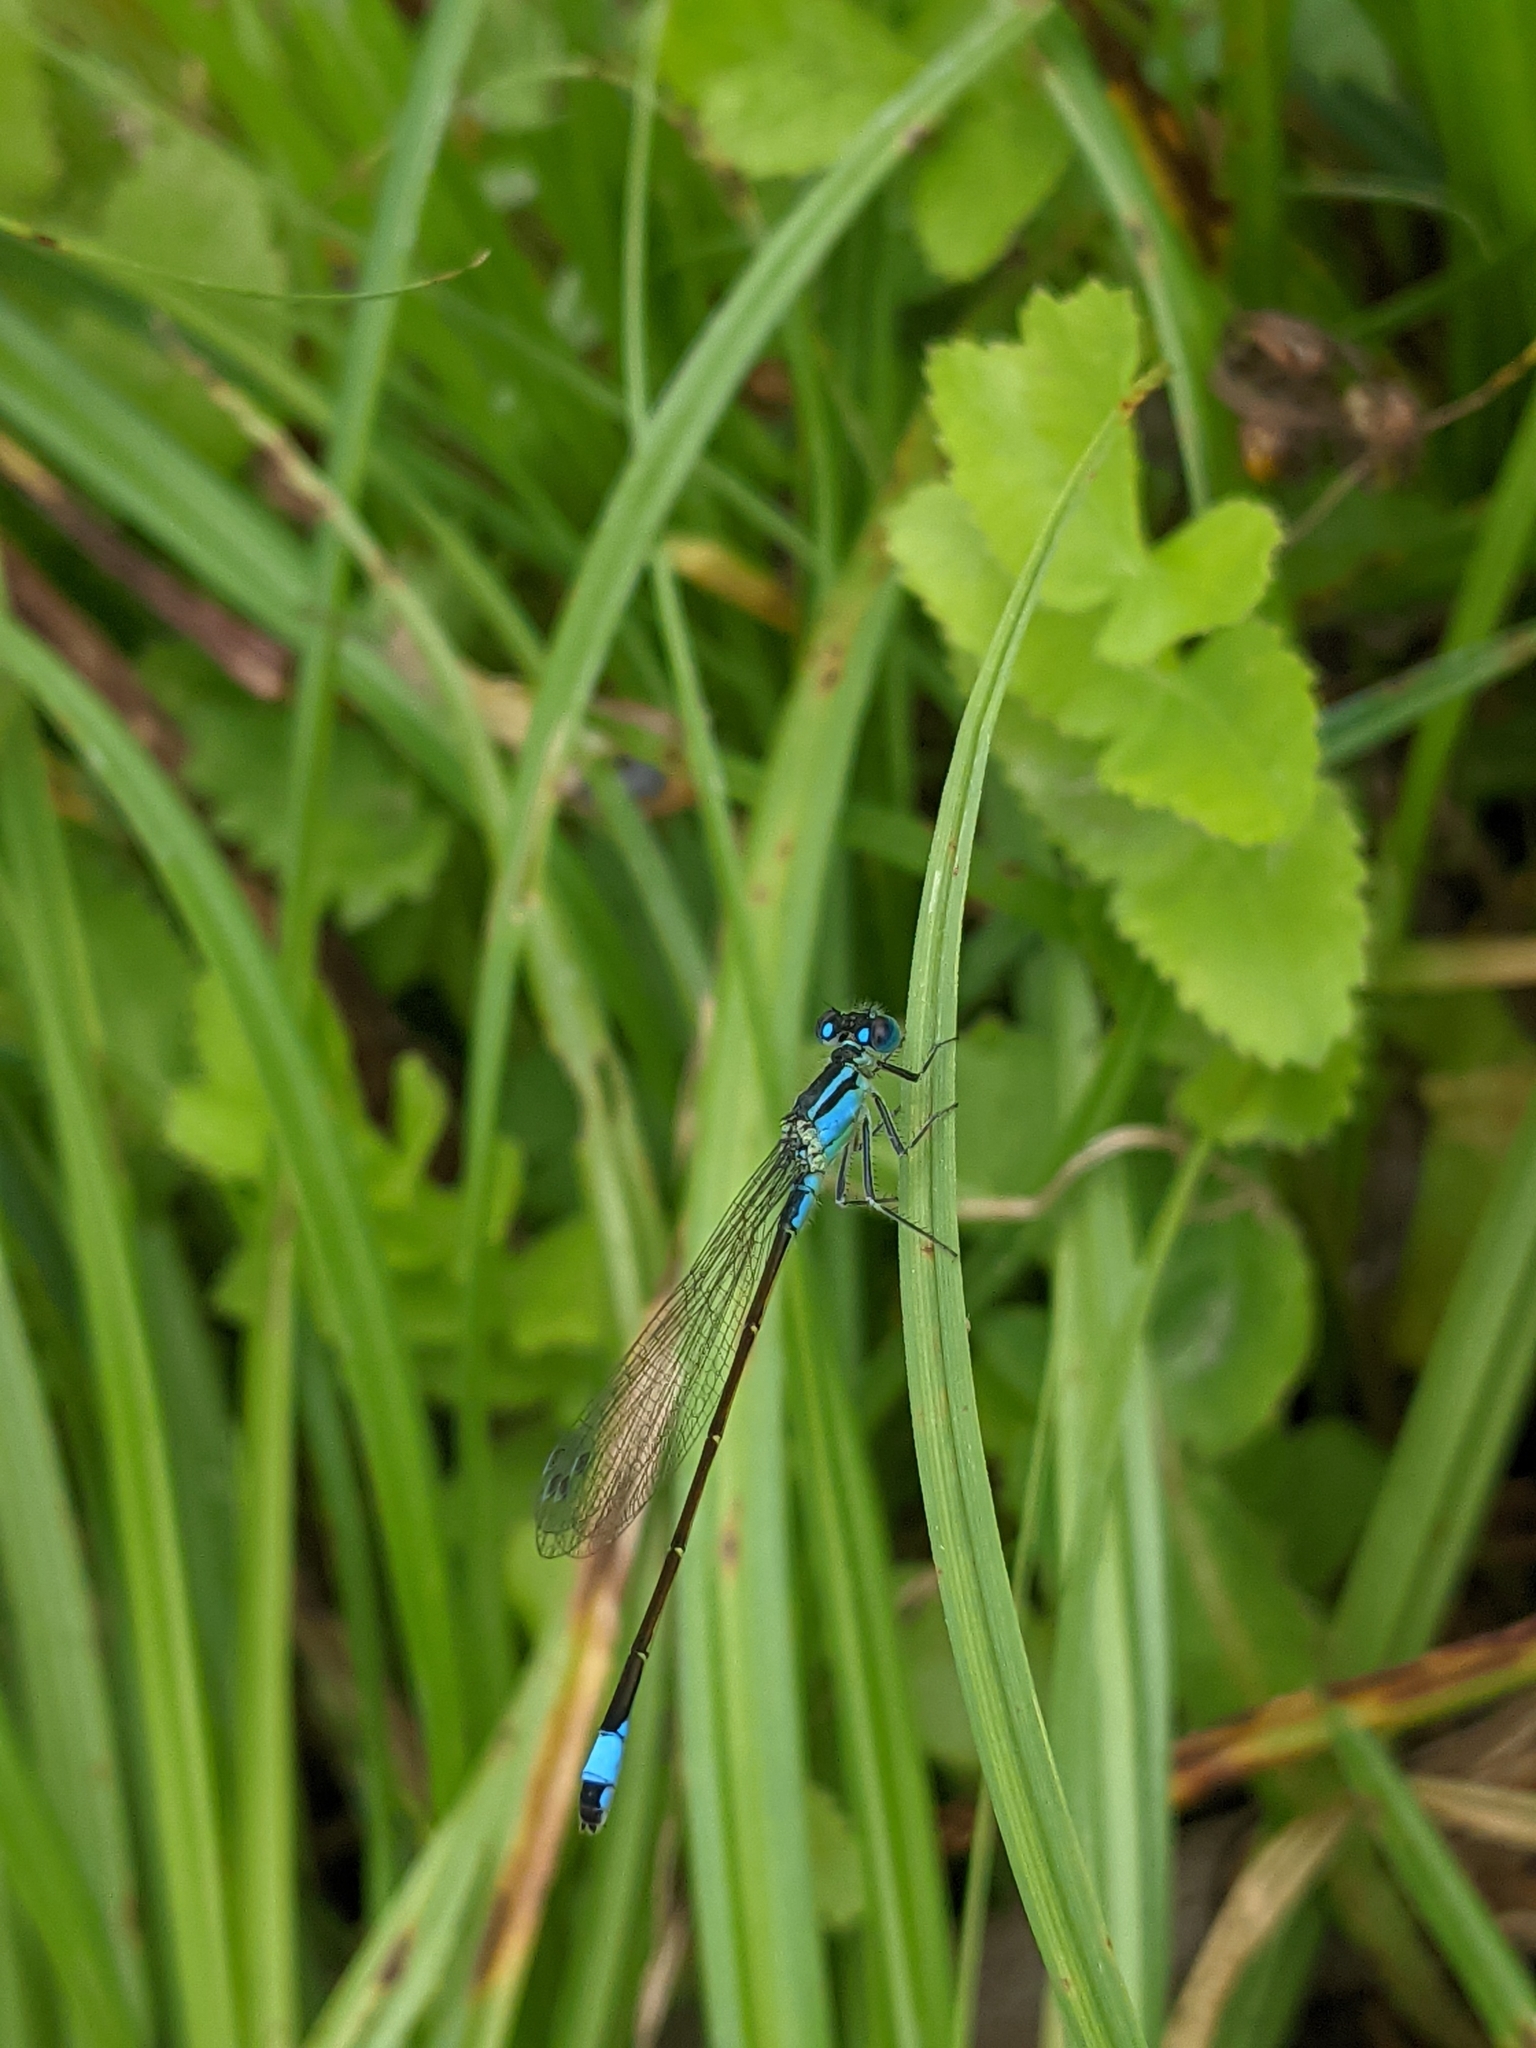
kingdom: Animalia
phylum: Arthropoda
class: Insecta
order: Odonata
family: Coenagrionidae
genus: Ischnura
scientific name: Ischnura elegans
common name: Blue-tailed damselfly
